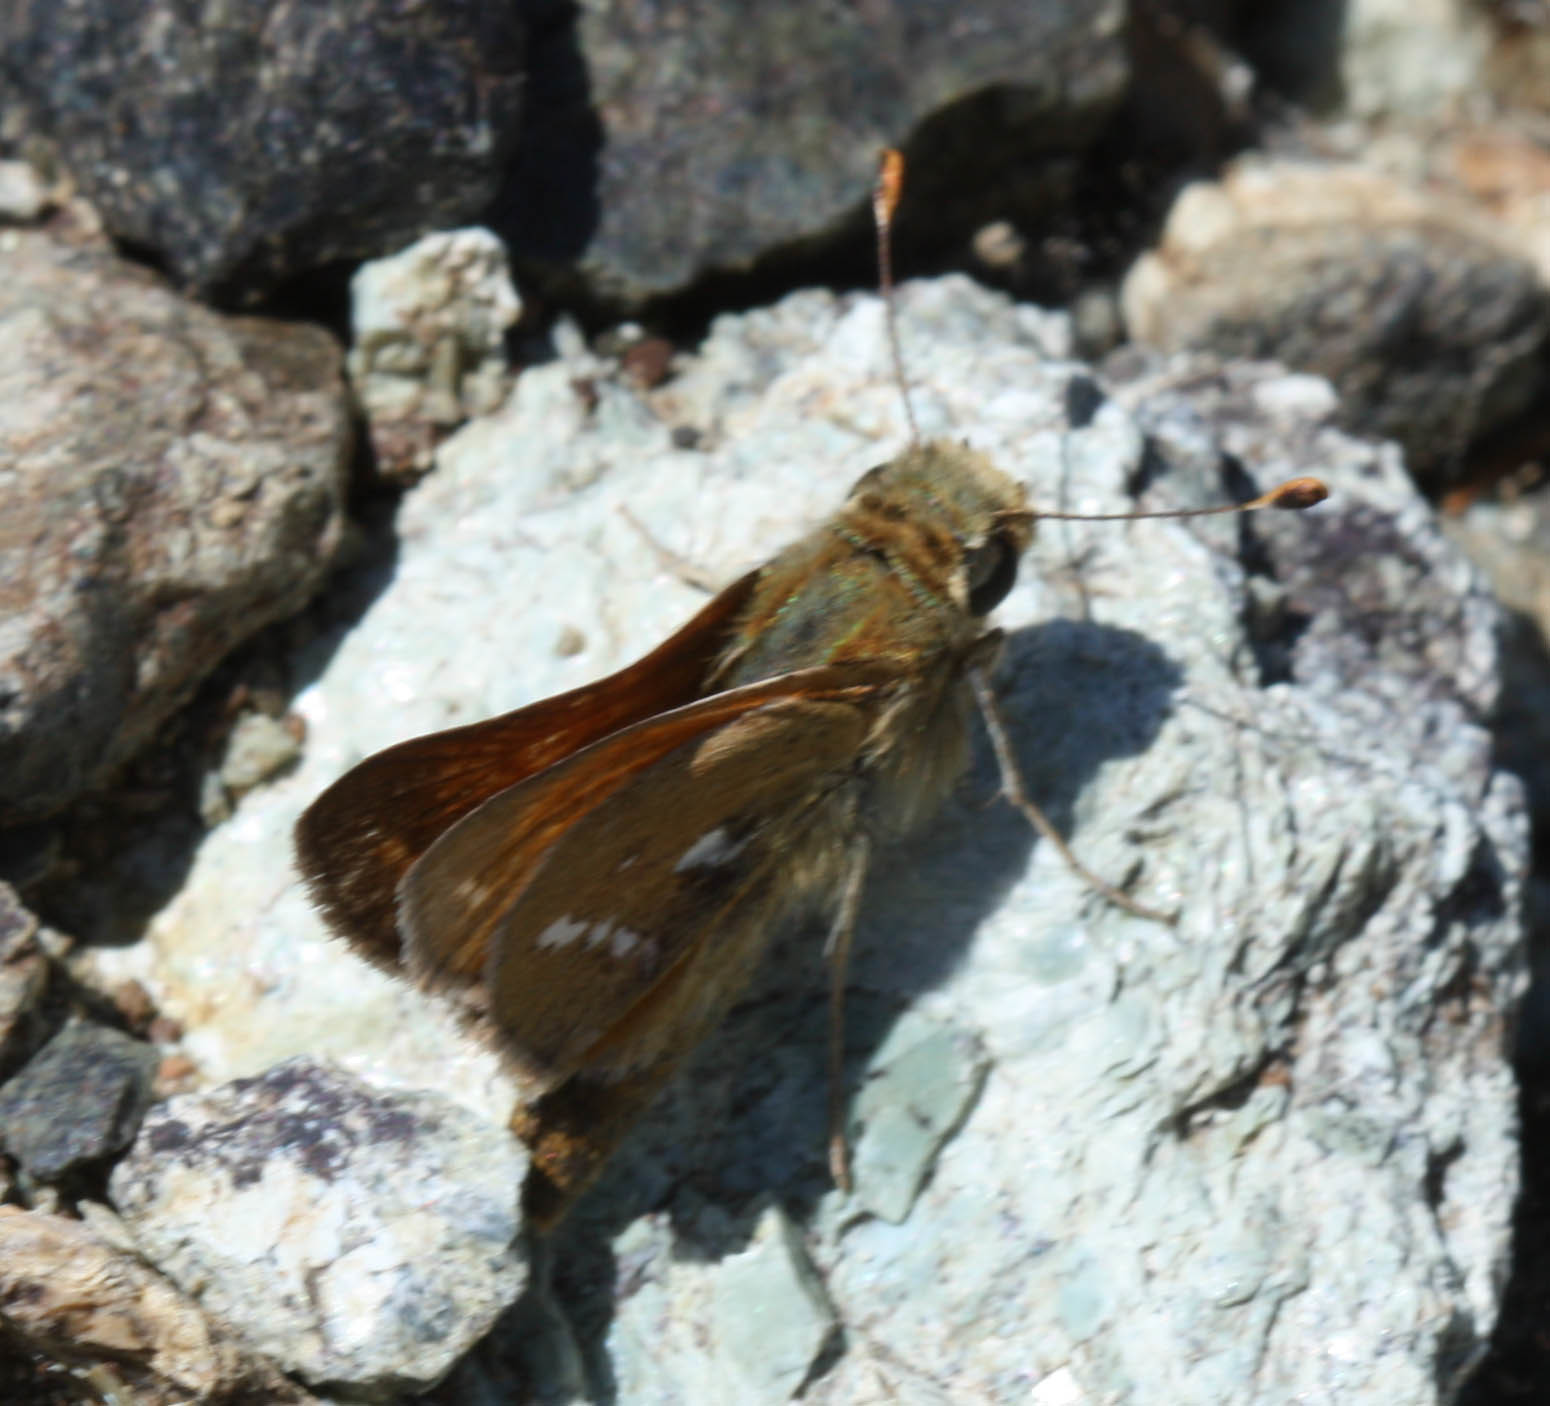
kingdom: Animalia
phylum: Arthropoda
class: Insecta
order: Lepidoptera
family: Hesperiidae
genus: Hesperia
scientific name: Hesperia columbia
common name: Columbian skipper
